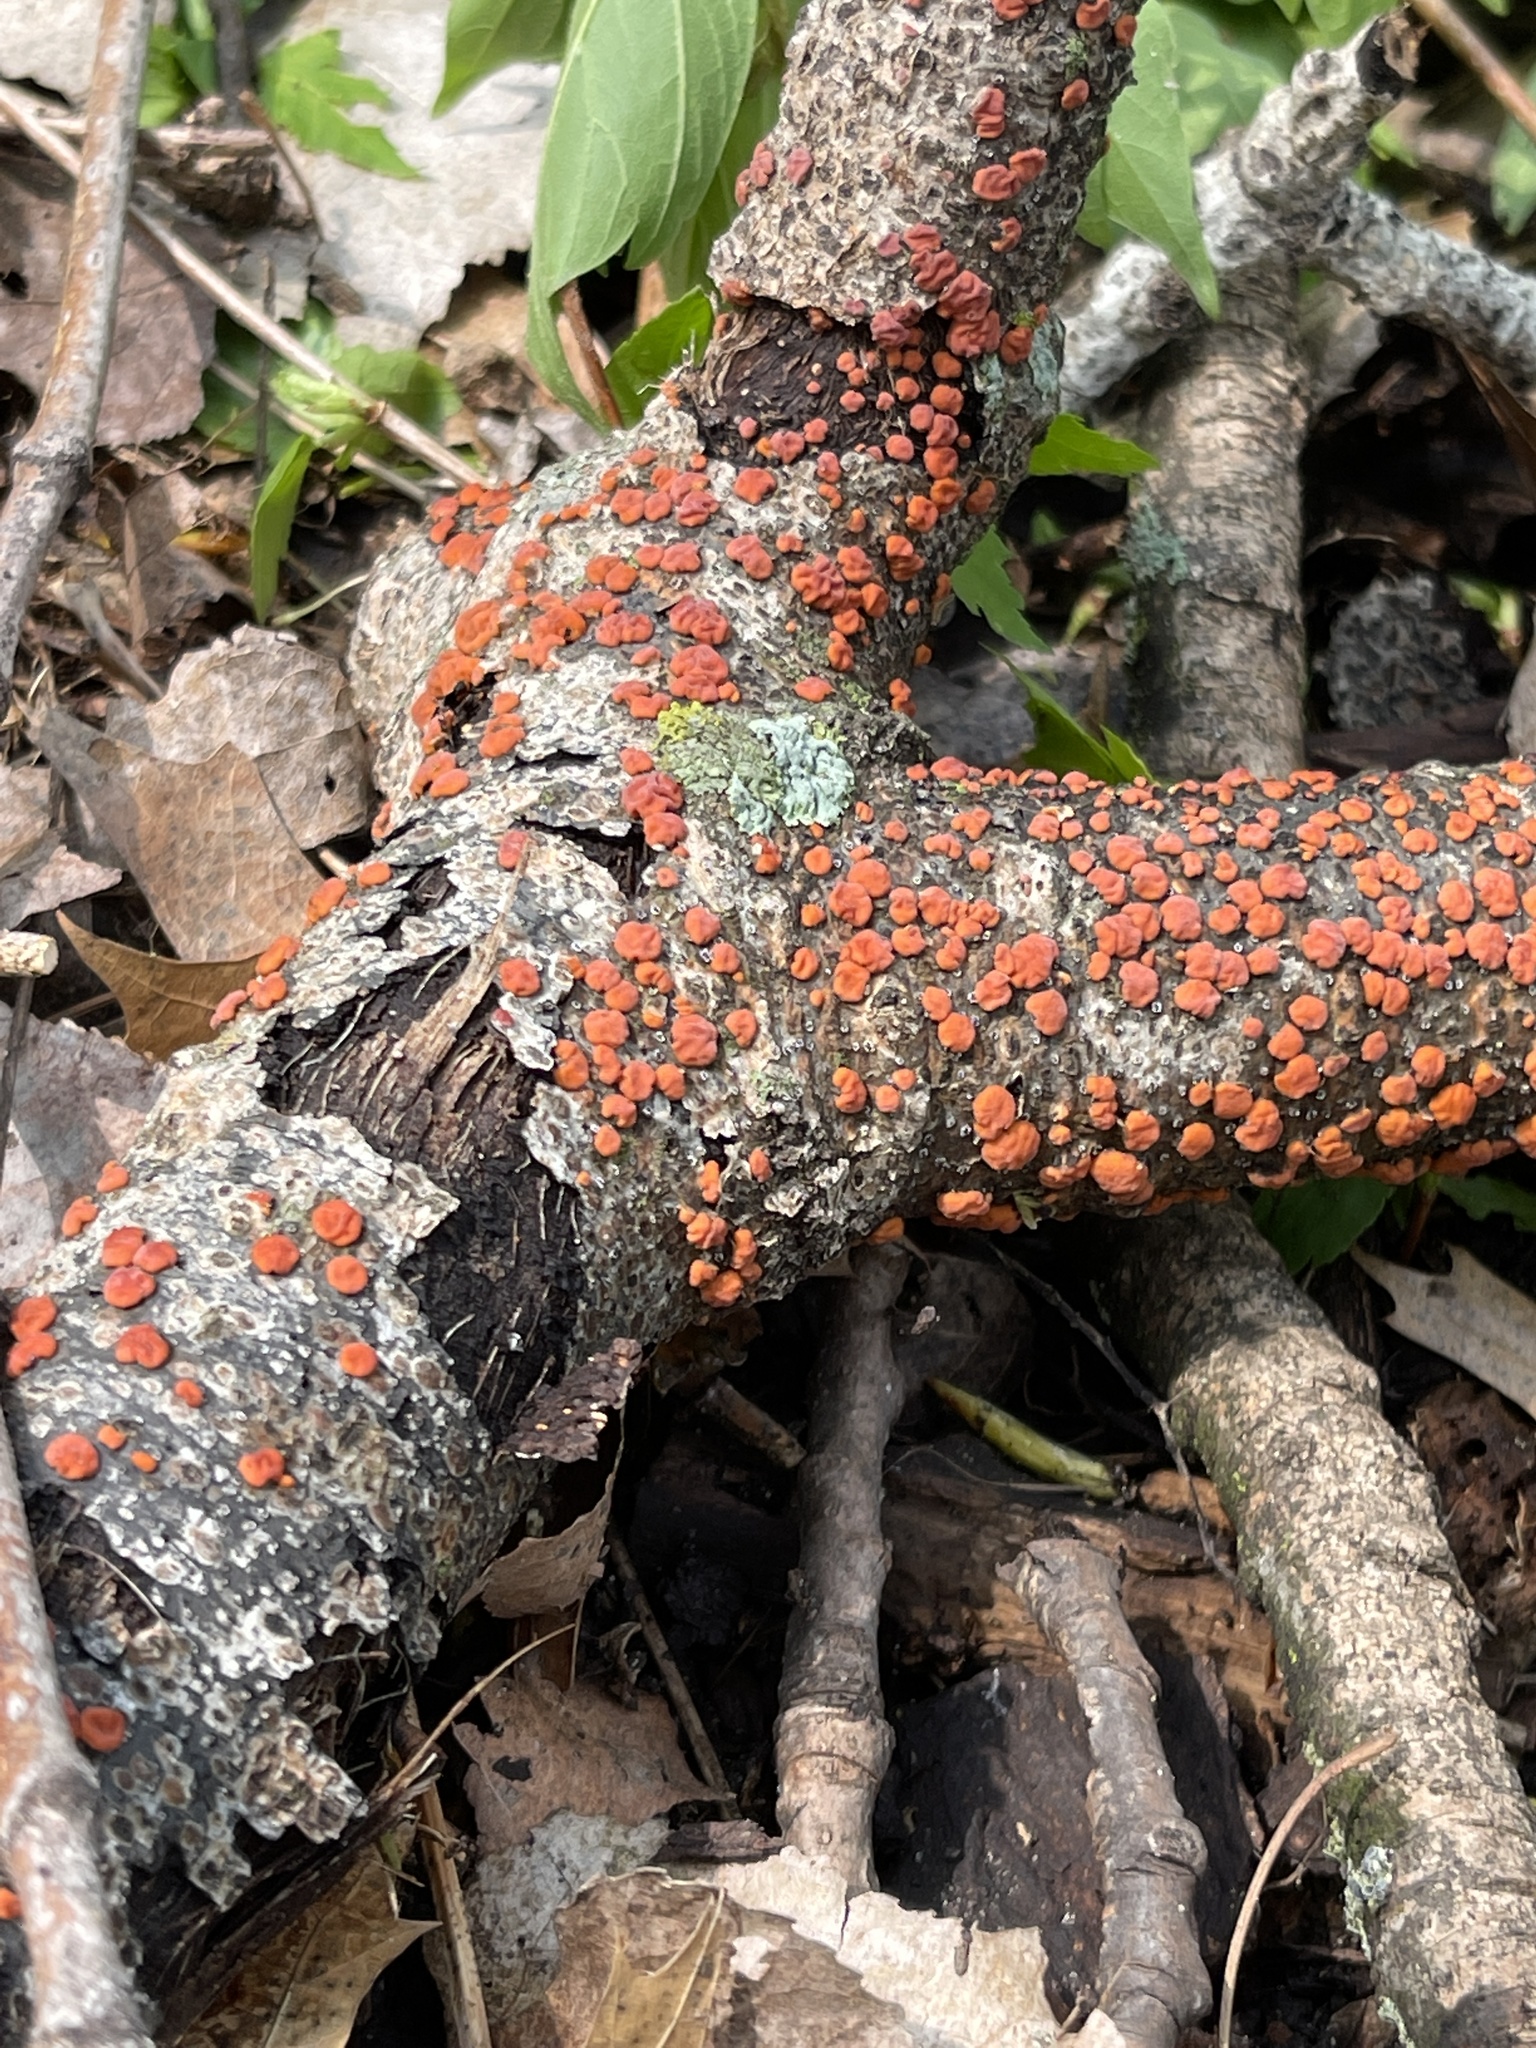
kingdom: Fungi
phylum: Basidiomycota
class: Agaricomycetes
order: Russulales
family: Peniophoraceae
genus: Peniophora
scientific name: Peniophora rufa
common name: Red tree brain fungus
